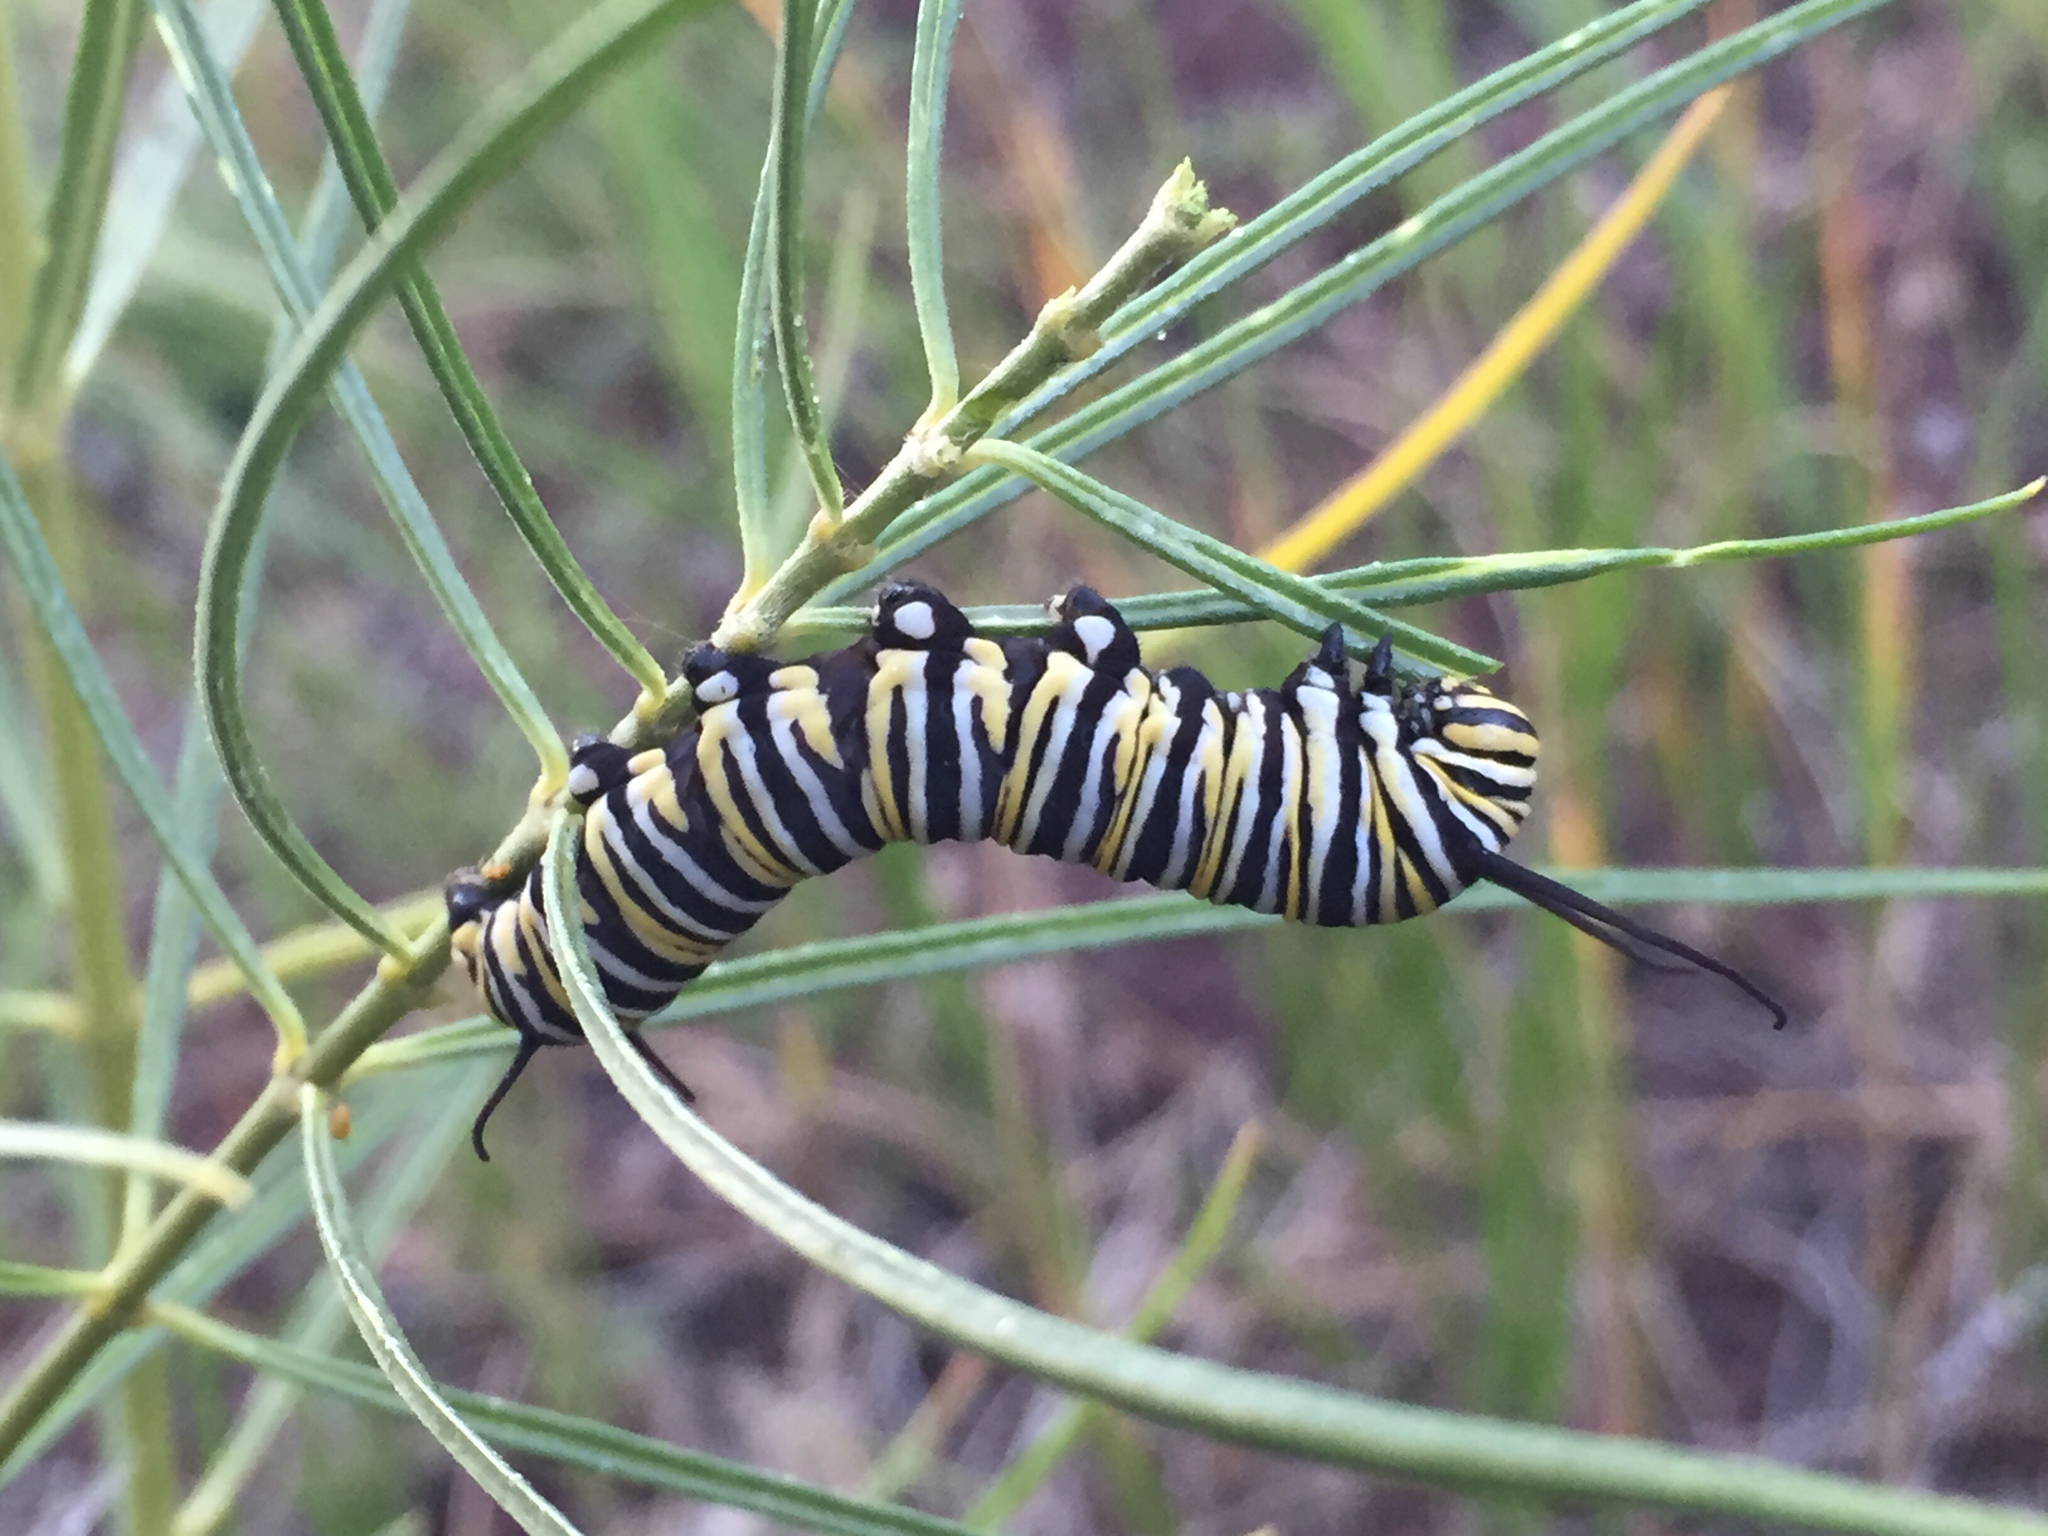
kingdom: Animalia
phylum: Arthropoda
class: Insecta
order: Lepidoptera
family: Nymphalidae
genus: Danaus
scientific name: Danaus plexippus
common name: Monarch
